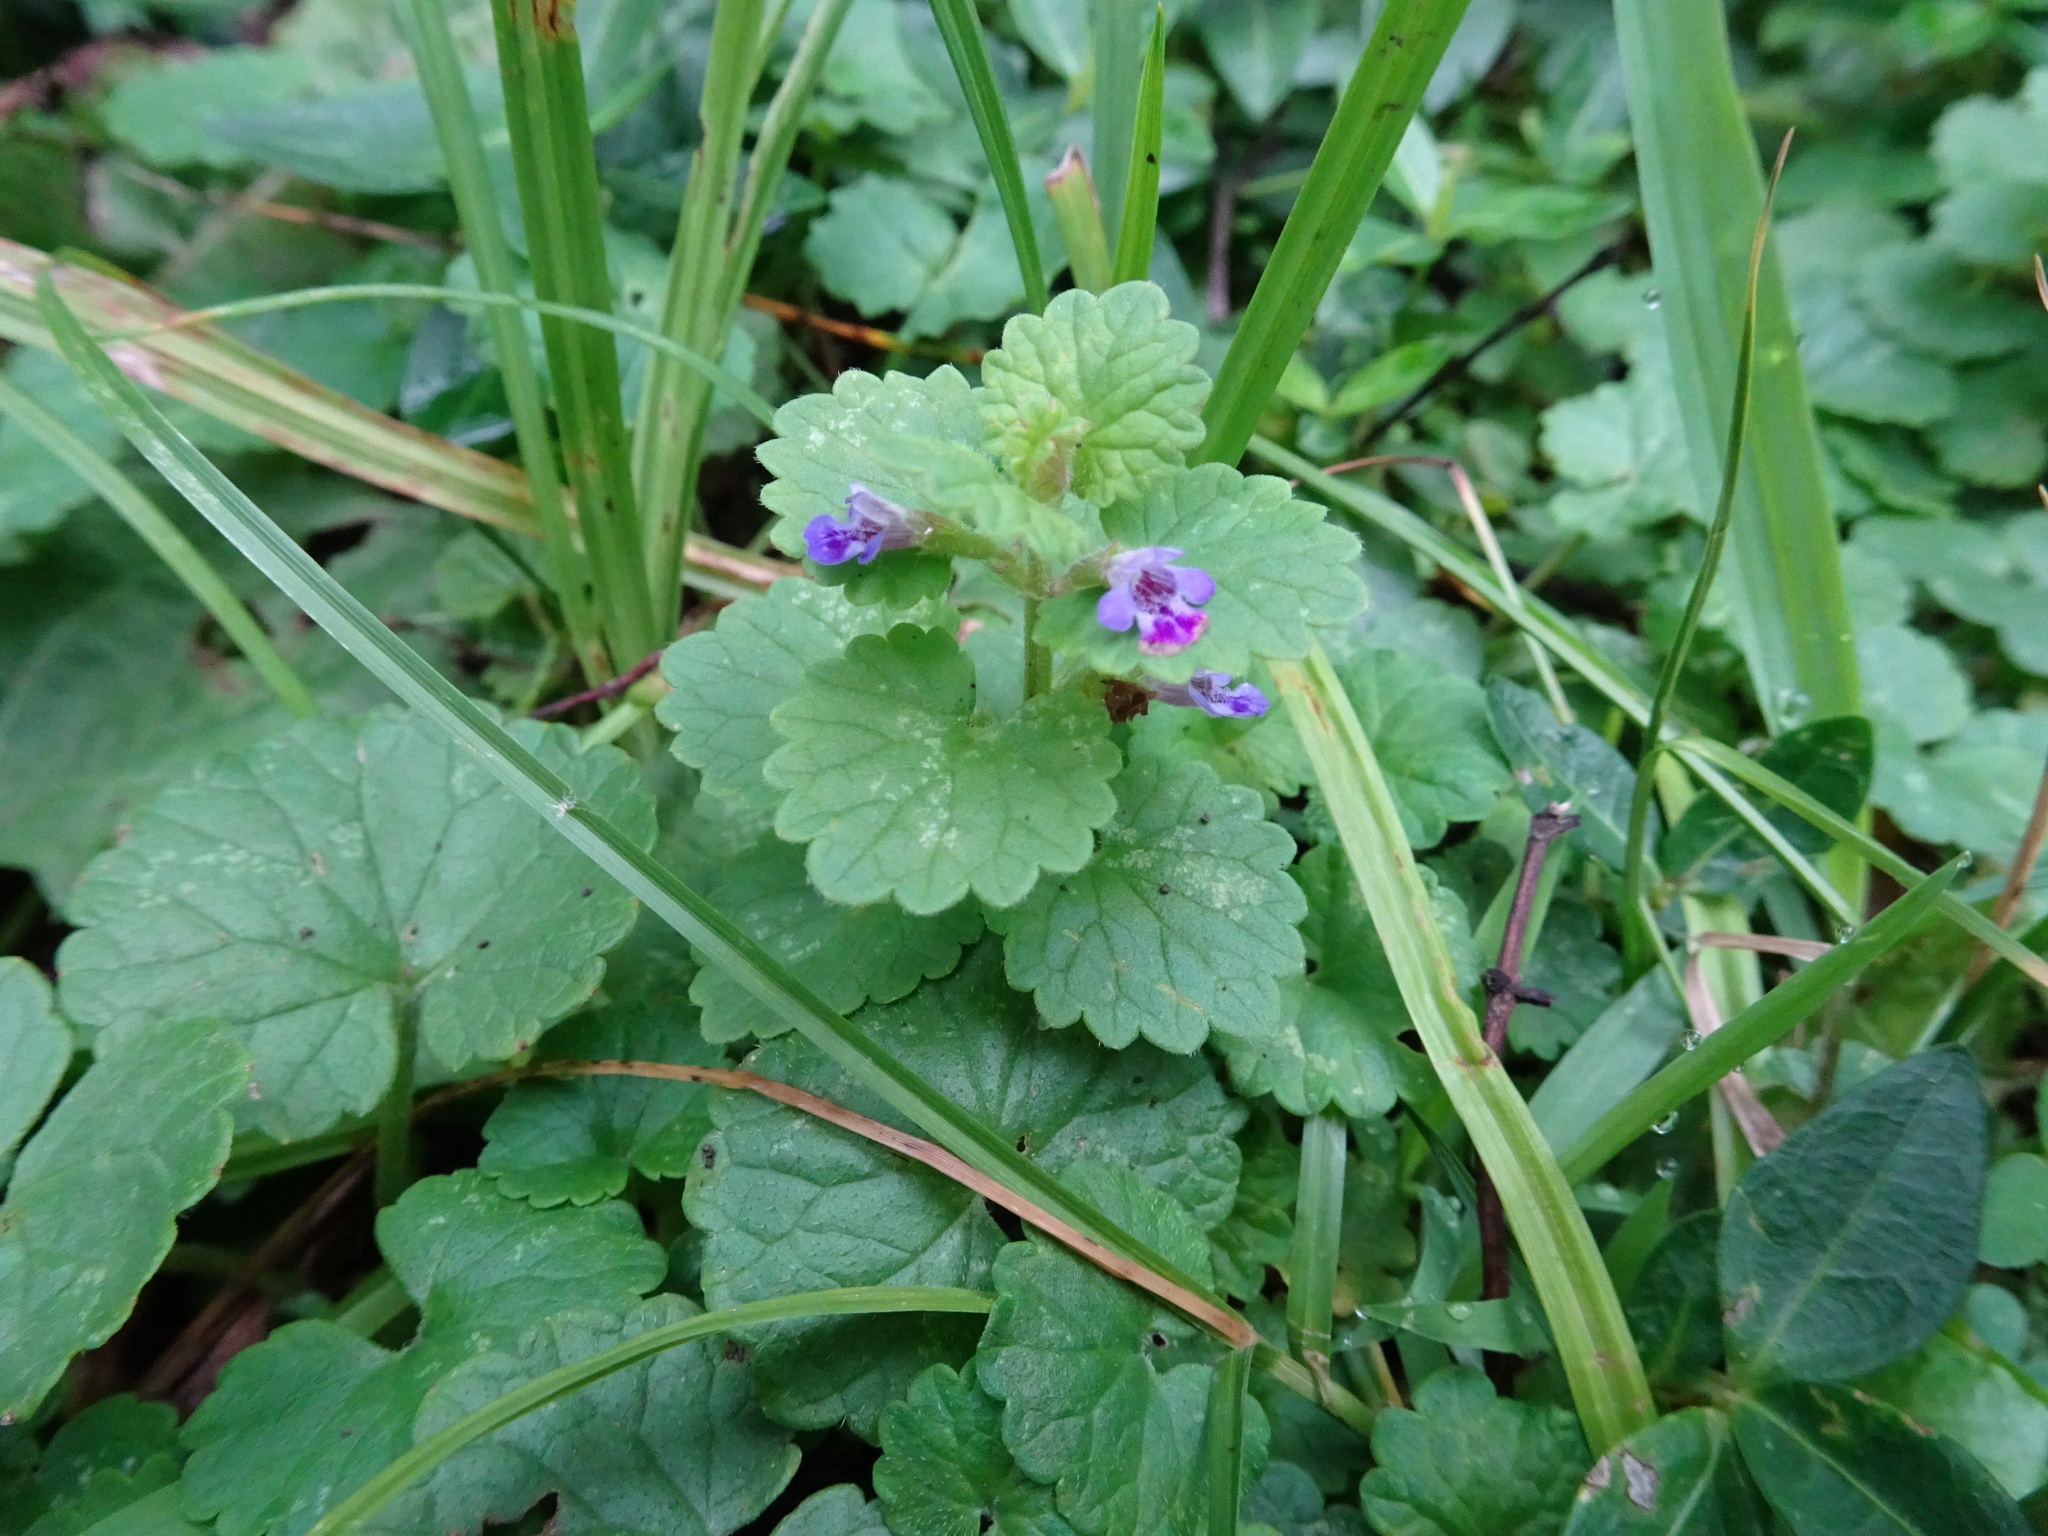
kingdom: Plantae
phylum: Tracheophyta
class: Magnoliopsida
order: Lamiales
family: Lamiaceae
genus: Glechoma
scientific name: Glechoma hederacea
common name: Ground ivy
